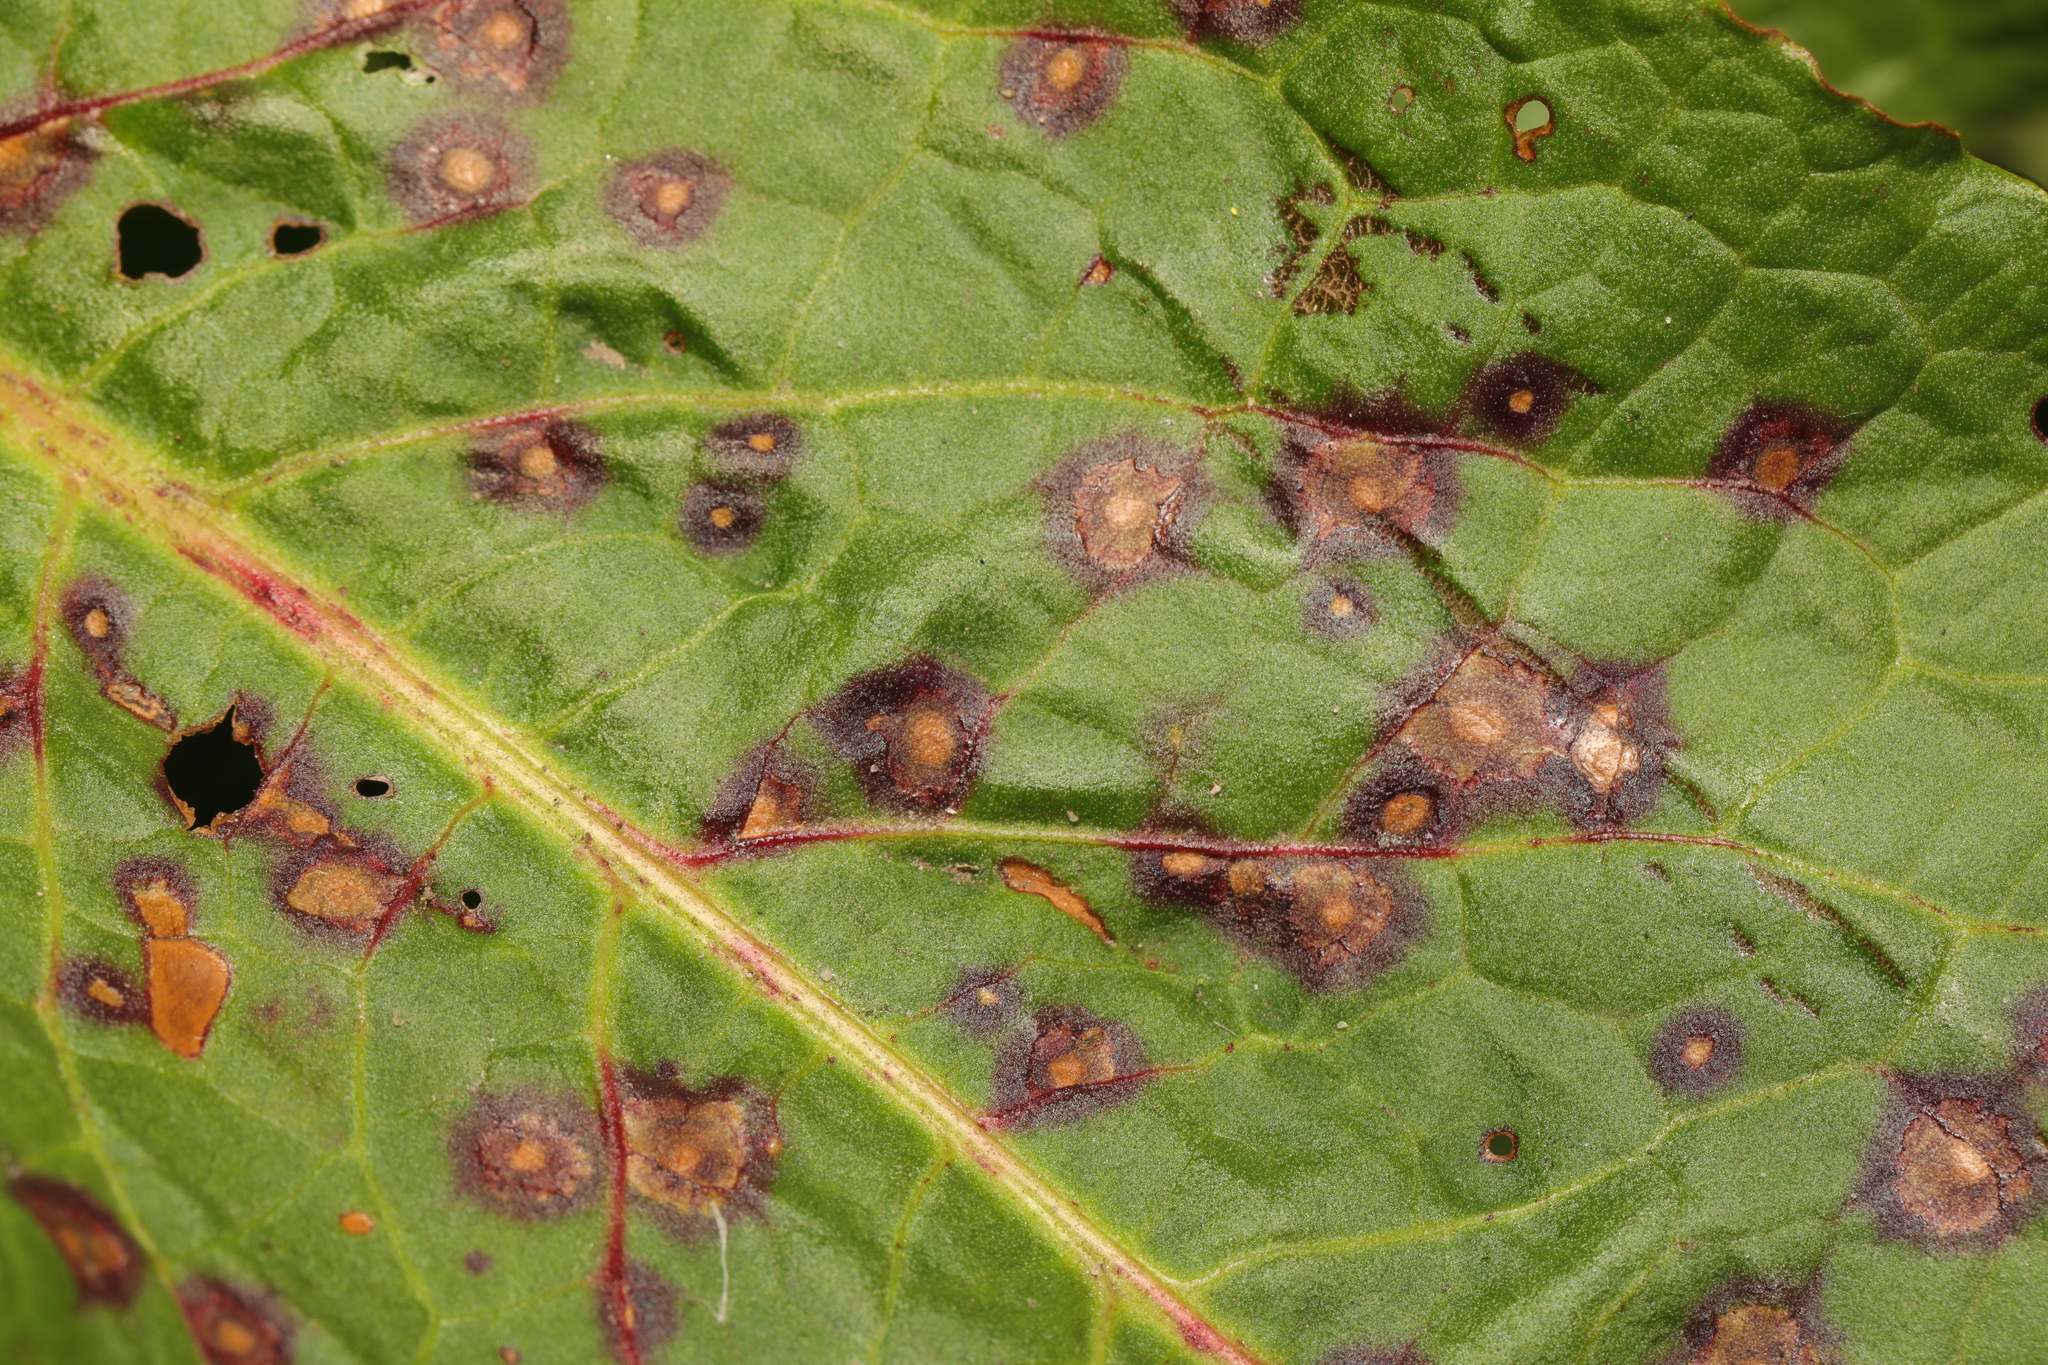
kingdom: Fungi
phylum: Ascomycota
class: Dothideomycetes
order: Mycosphaerellales
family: Mycosphaerellaceae
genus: Ramularia
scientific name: Ramularia rubella
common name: Red dock spot
